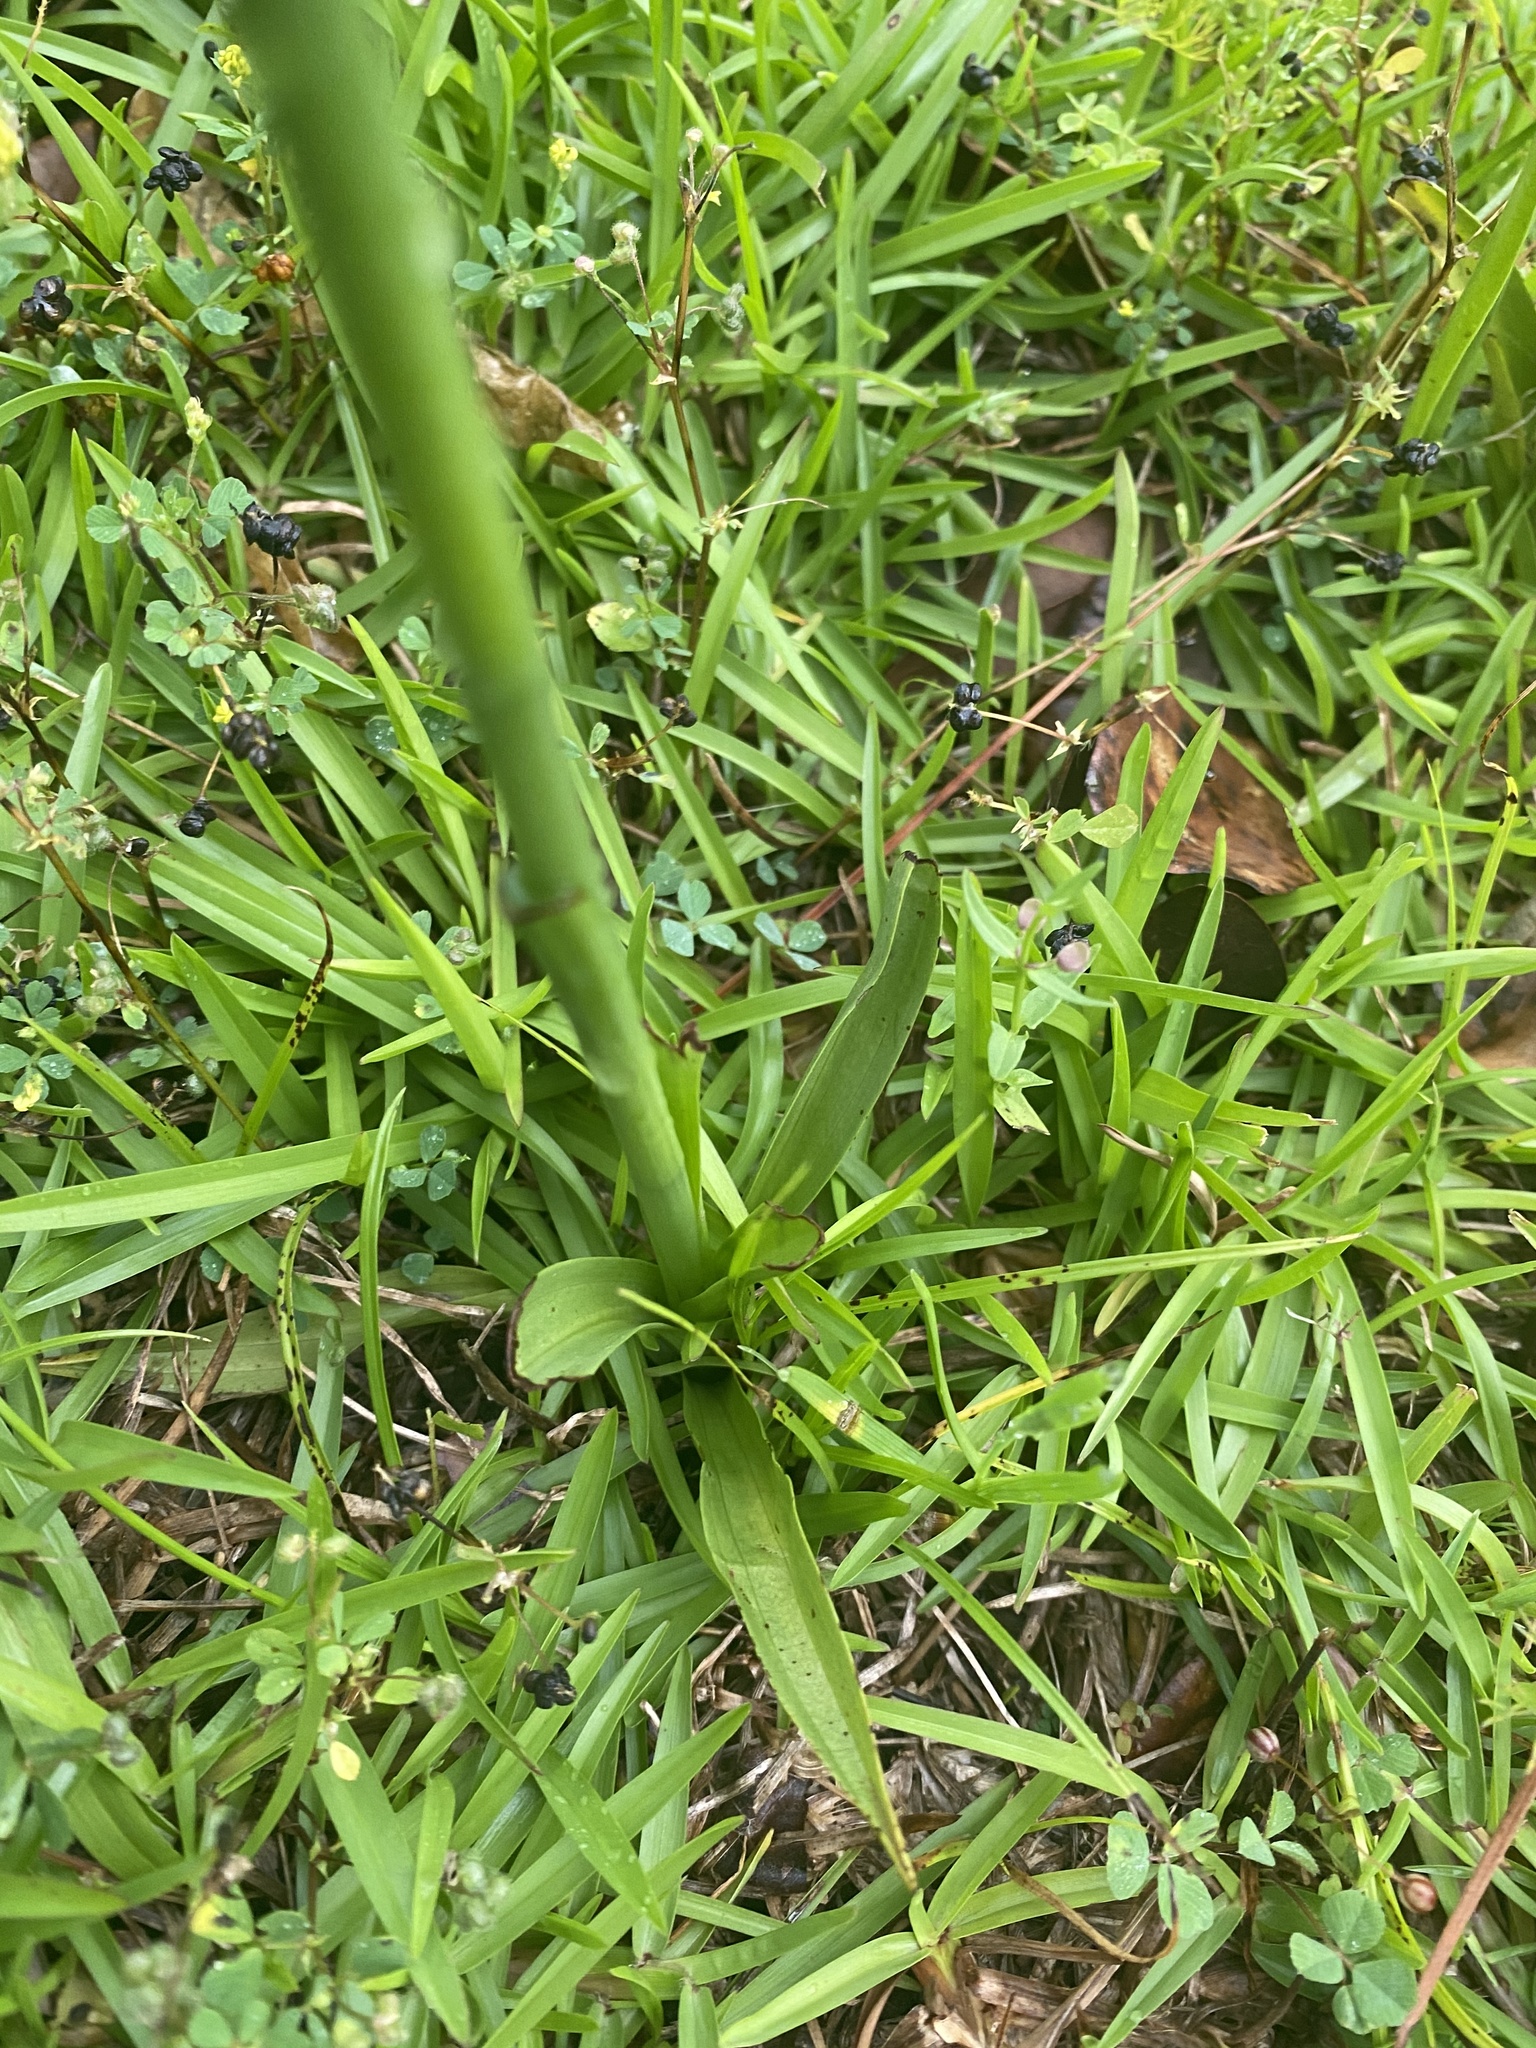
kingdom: Plantae
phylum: Tracheophyta
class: Liliopsida
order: Asparagales
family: Orchidaceae
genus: Spiranthes
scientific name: Spiranthes vernalis
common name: Spring ladies'-tresses
